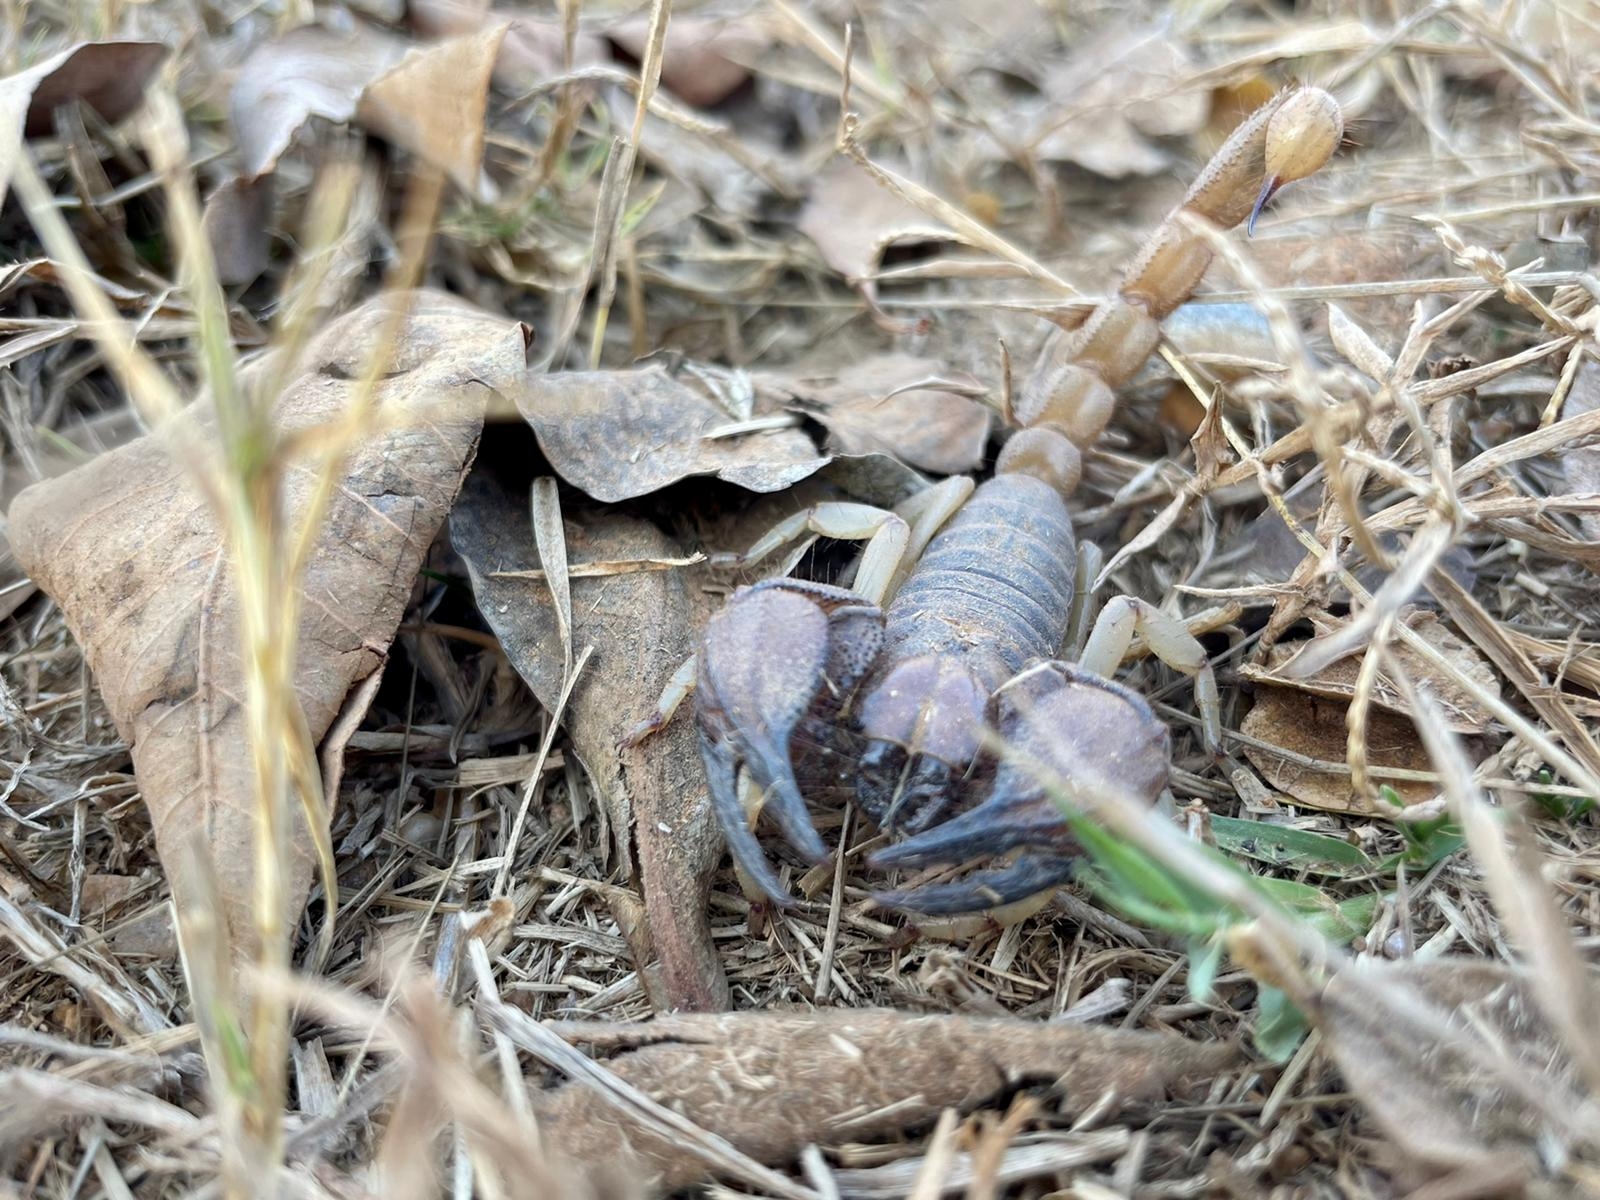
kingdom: Animalia
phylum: Arthropoda
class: Arachnida
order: Scorpiones
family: Scorpionidae
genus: Opistophthalmus
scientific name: Opistophthalmus glabrifrons
